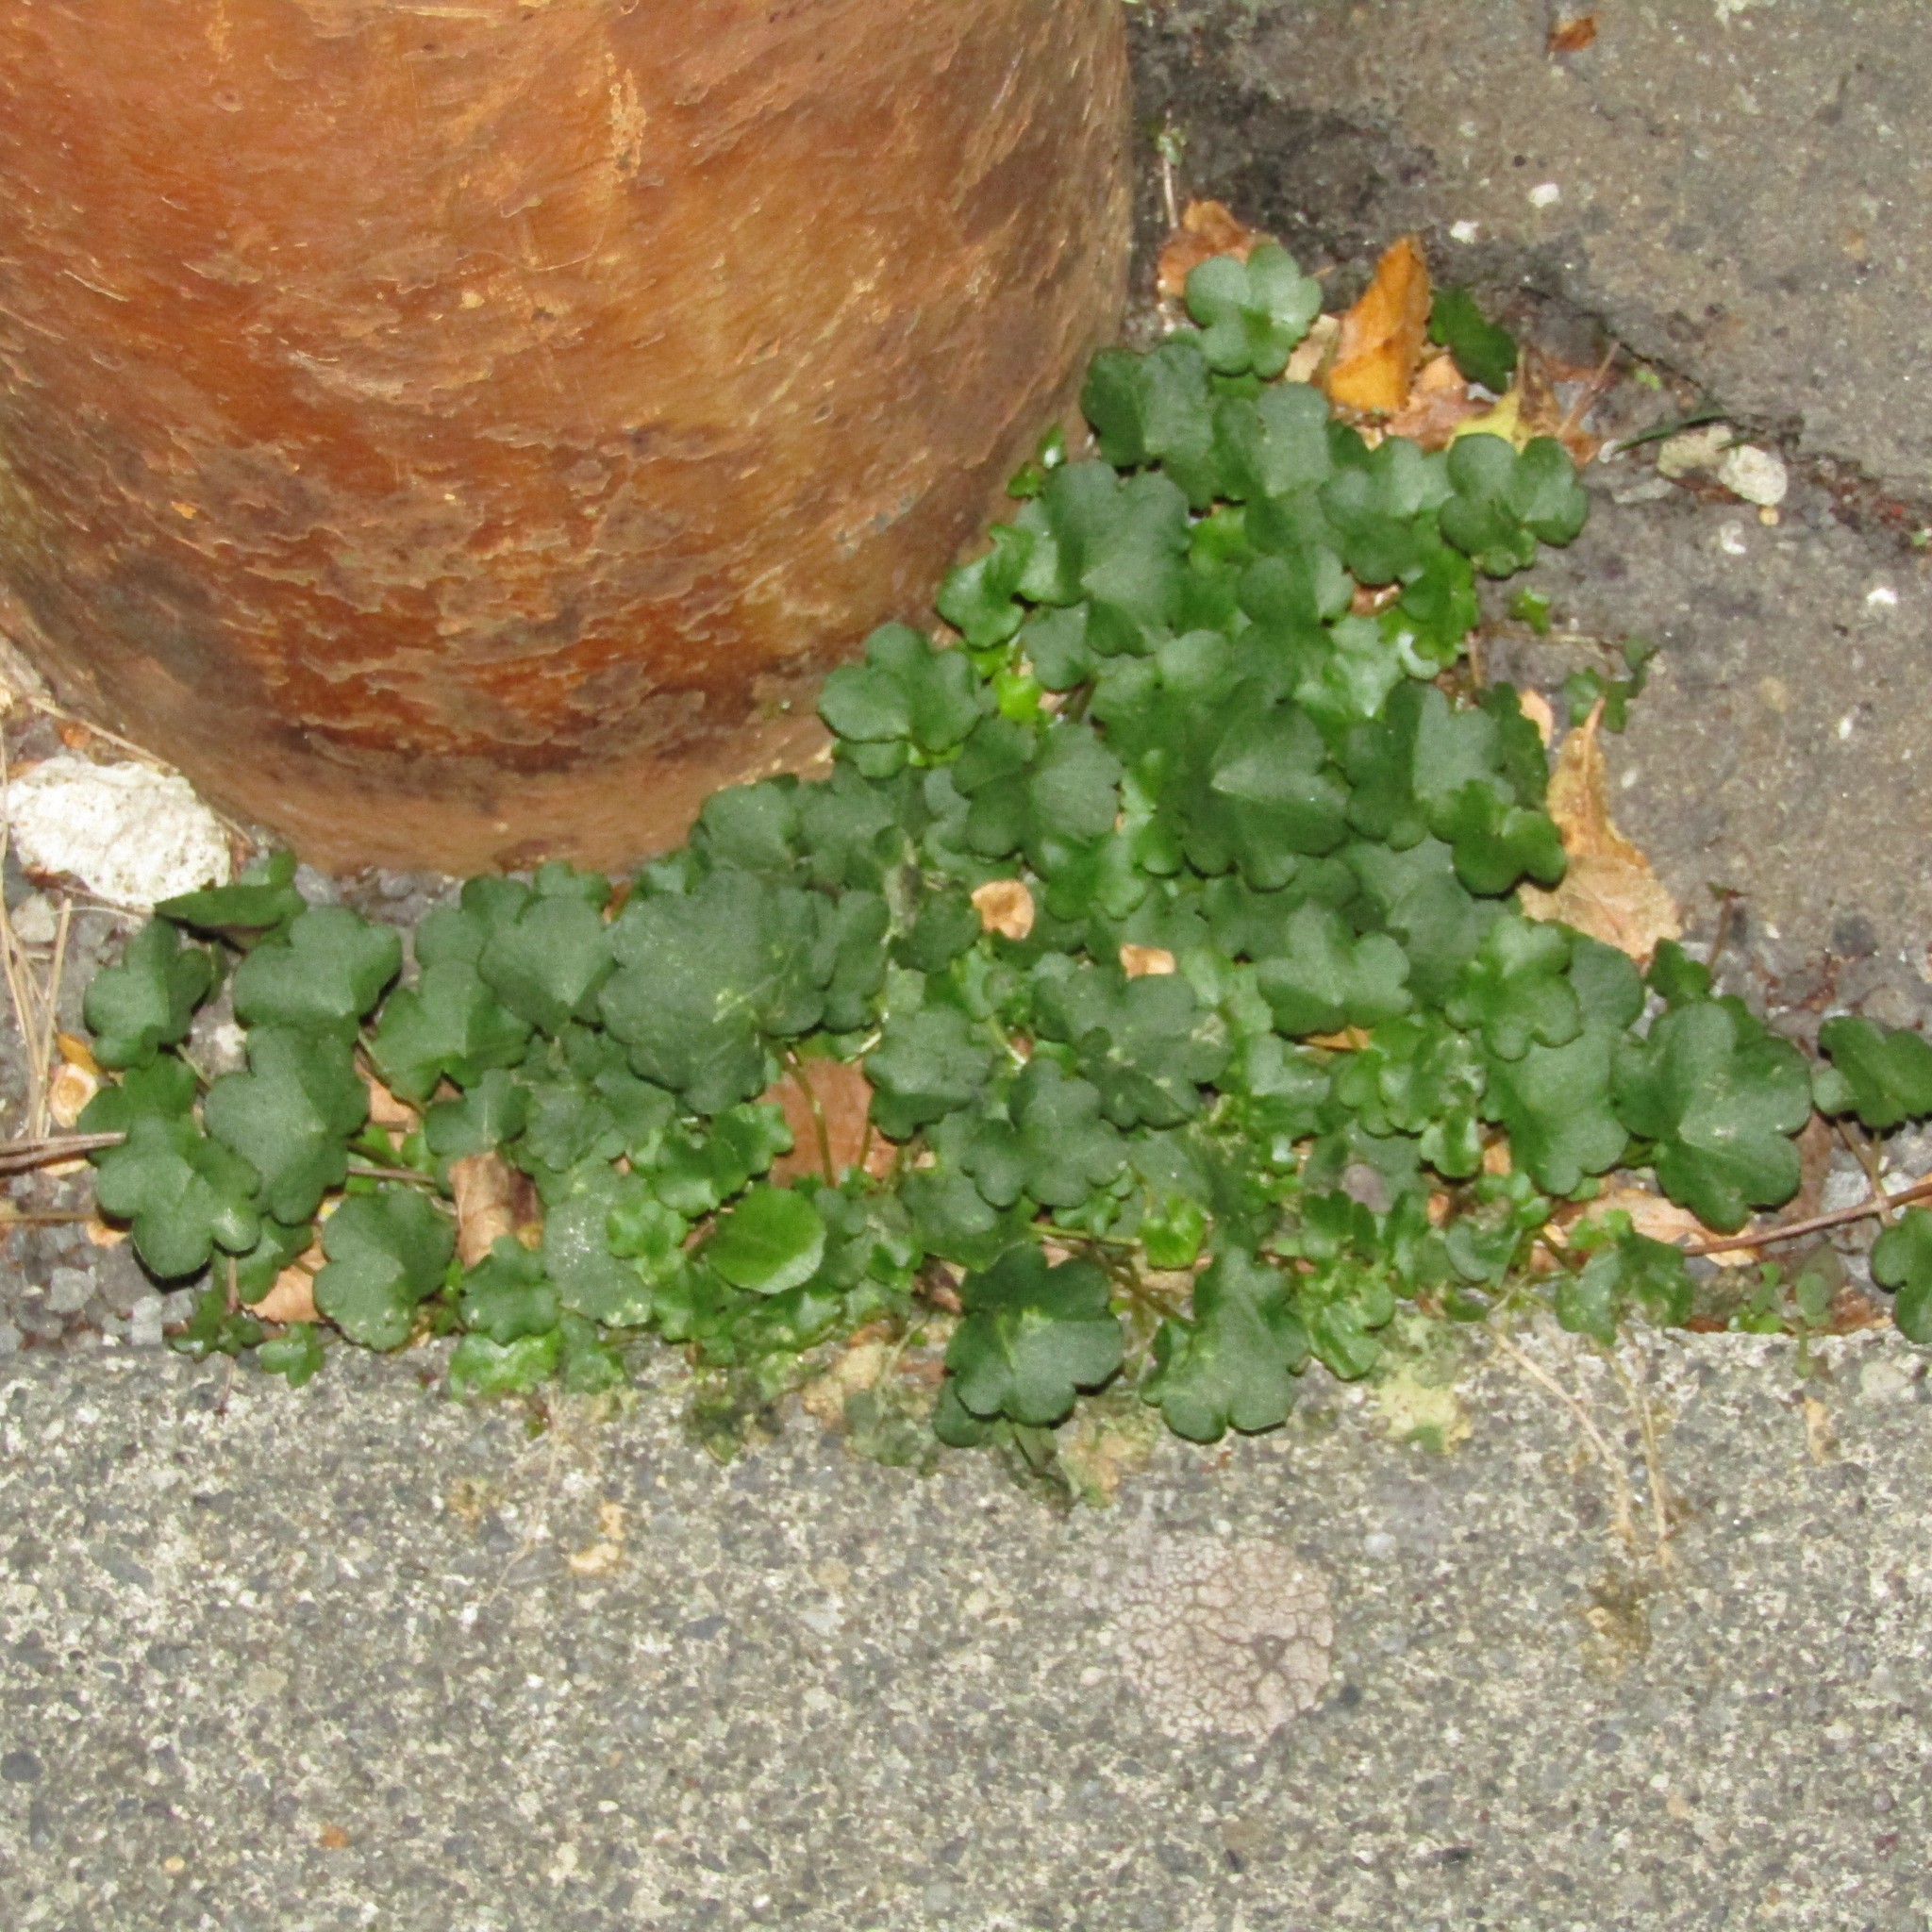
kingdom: Plantae
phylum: Tracheophyta
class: Magnoliopsida
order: Lamiales
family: Plantaginaceae
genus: Cymbalaria
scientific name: Cymbalaria muralis
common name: Ivy-leaved toadflax
